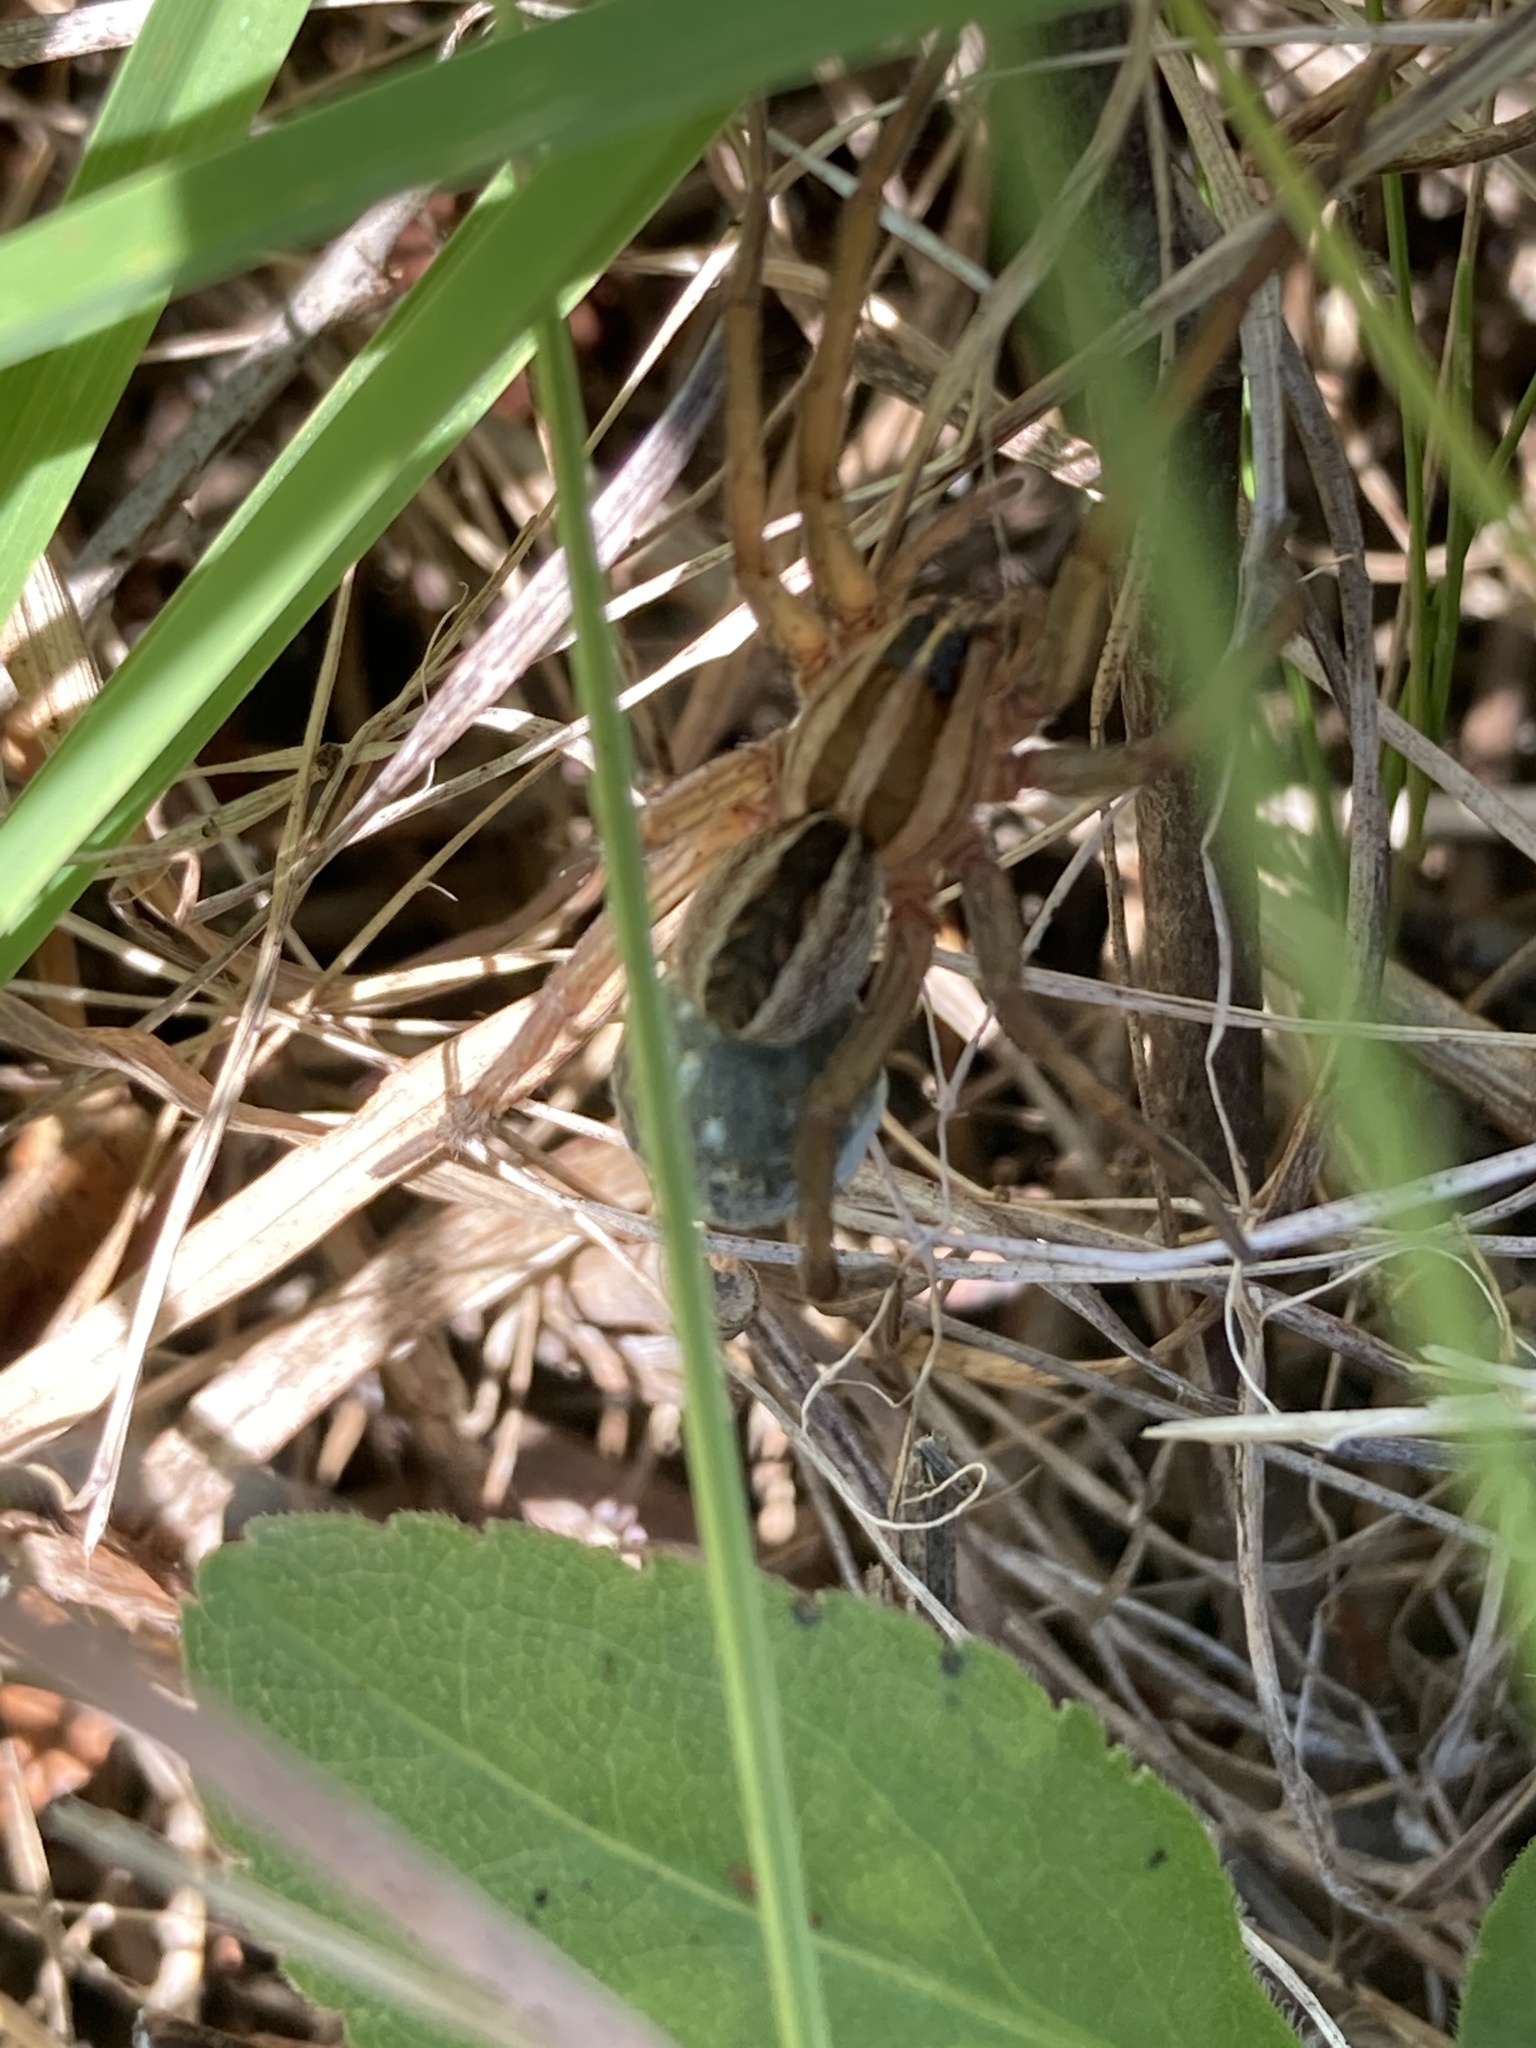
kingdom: Animalia
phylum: Arthropoda
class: Arachnida
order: Araneae
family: Lycosidae
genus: Rabidosa
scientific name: Rabidosa rabida
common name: Rabid wolf spider
